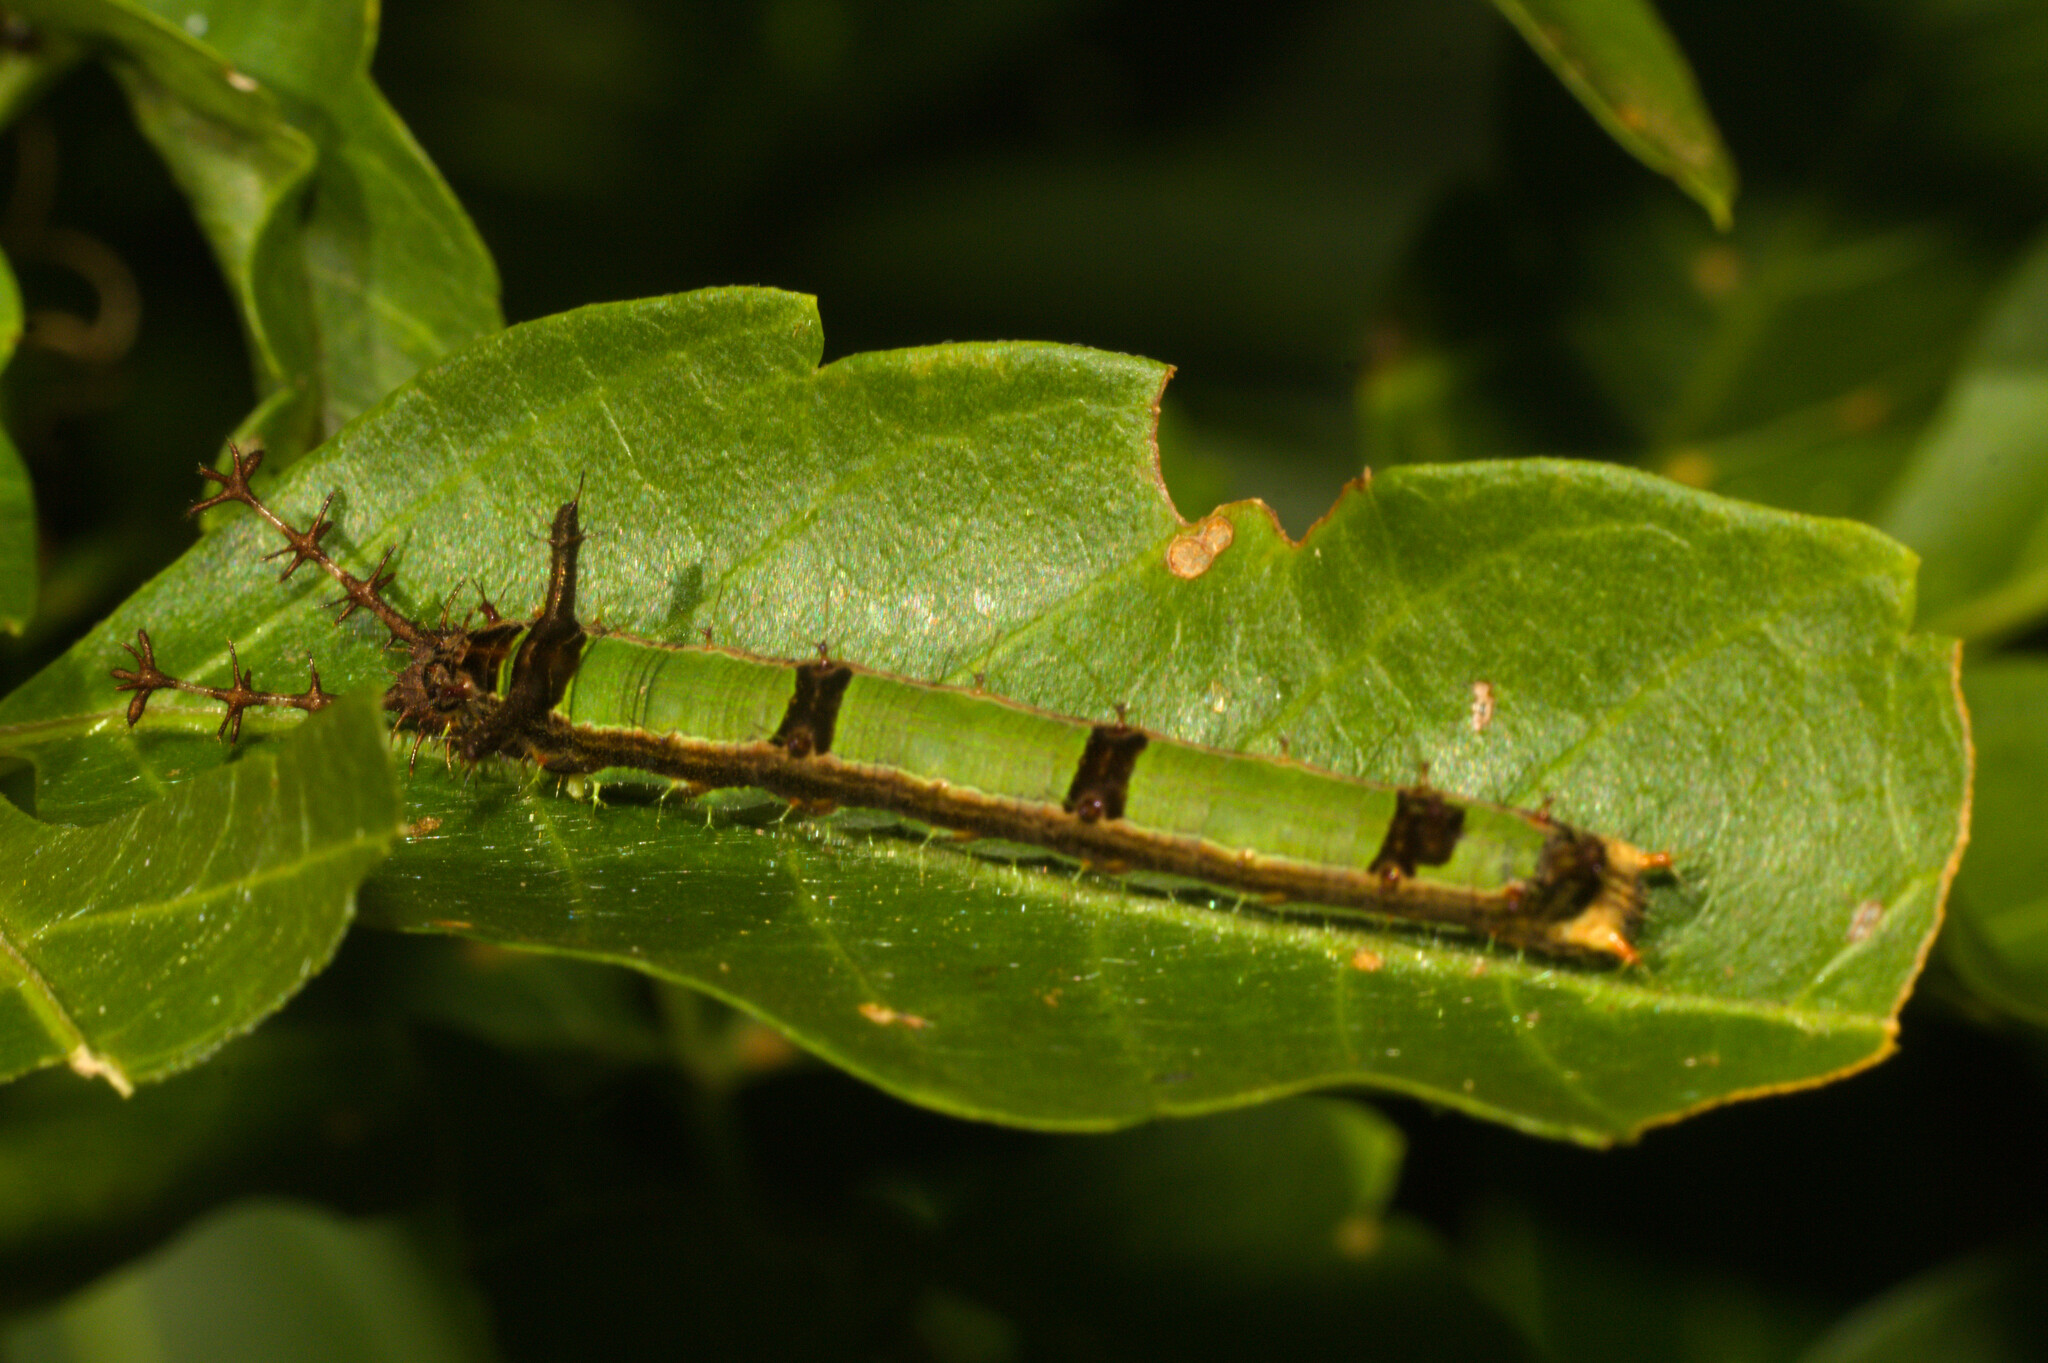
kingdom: Animalia
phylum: Arthropoda
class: Insecta
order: Lepidoptera
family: Nymphalidae
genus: Temenis
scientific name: Temenis laothoe
